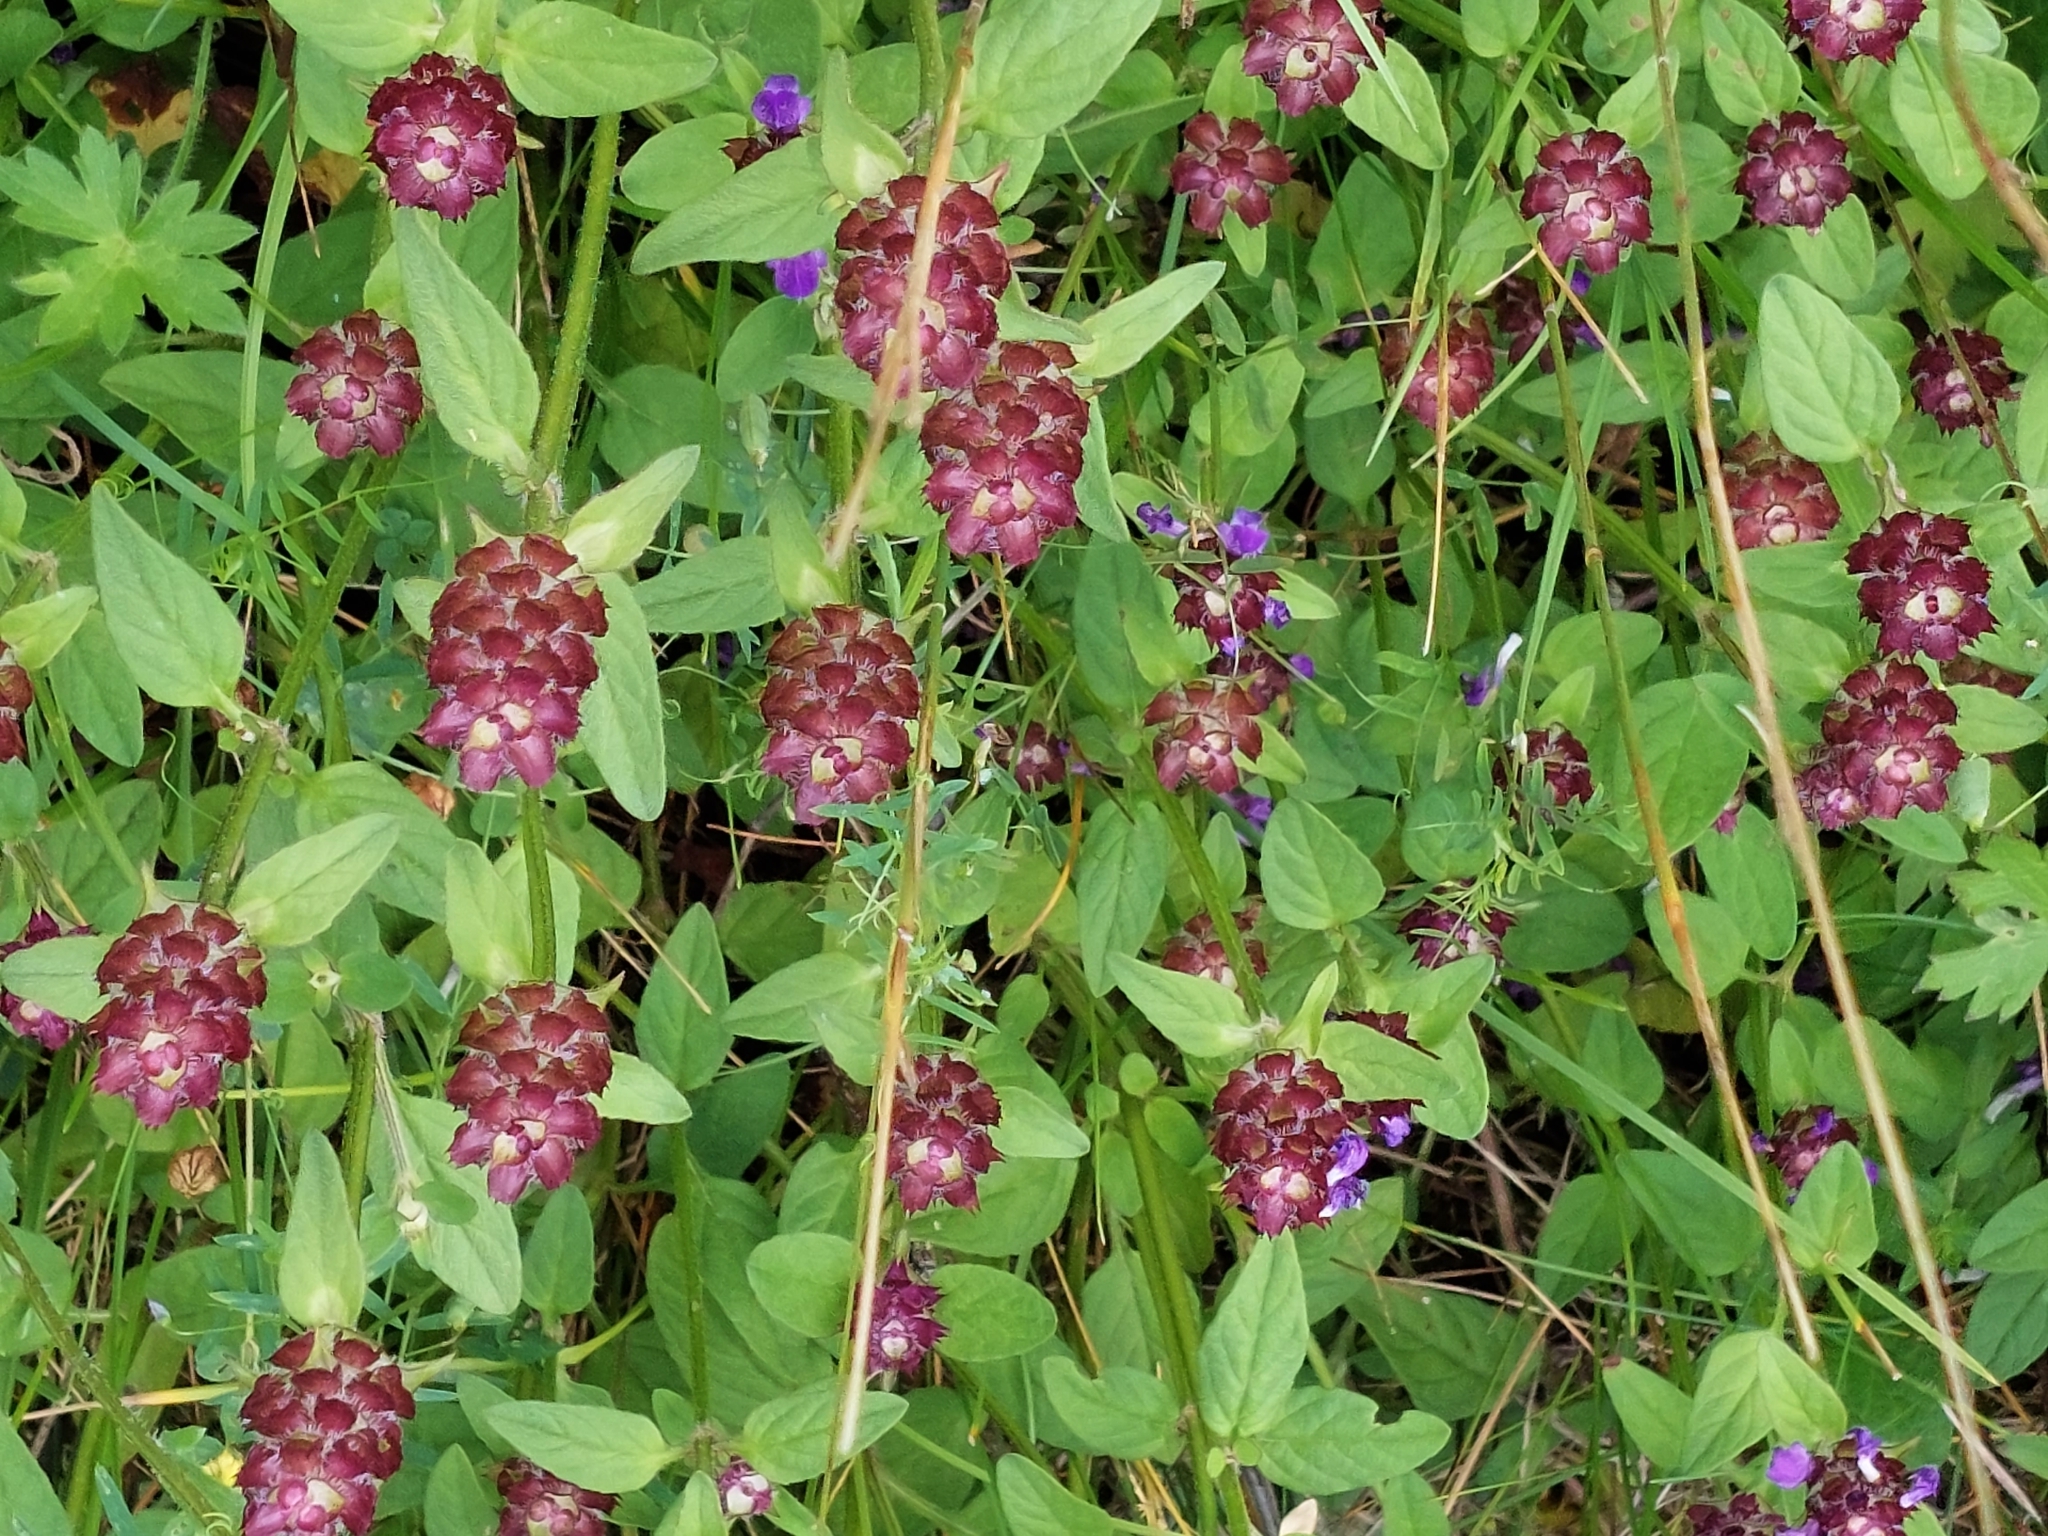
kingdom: Plantae
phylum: Tracheophyta
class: Magnoliopsida
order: Lamiales
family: Lamiaceae
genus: Prunella
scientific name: Prunella vulgaris
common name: Heal-all
